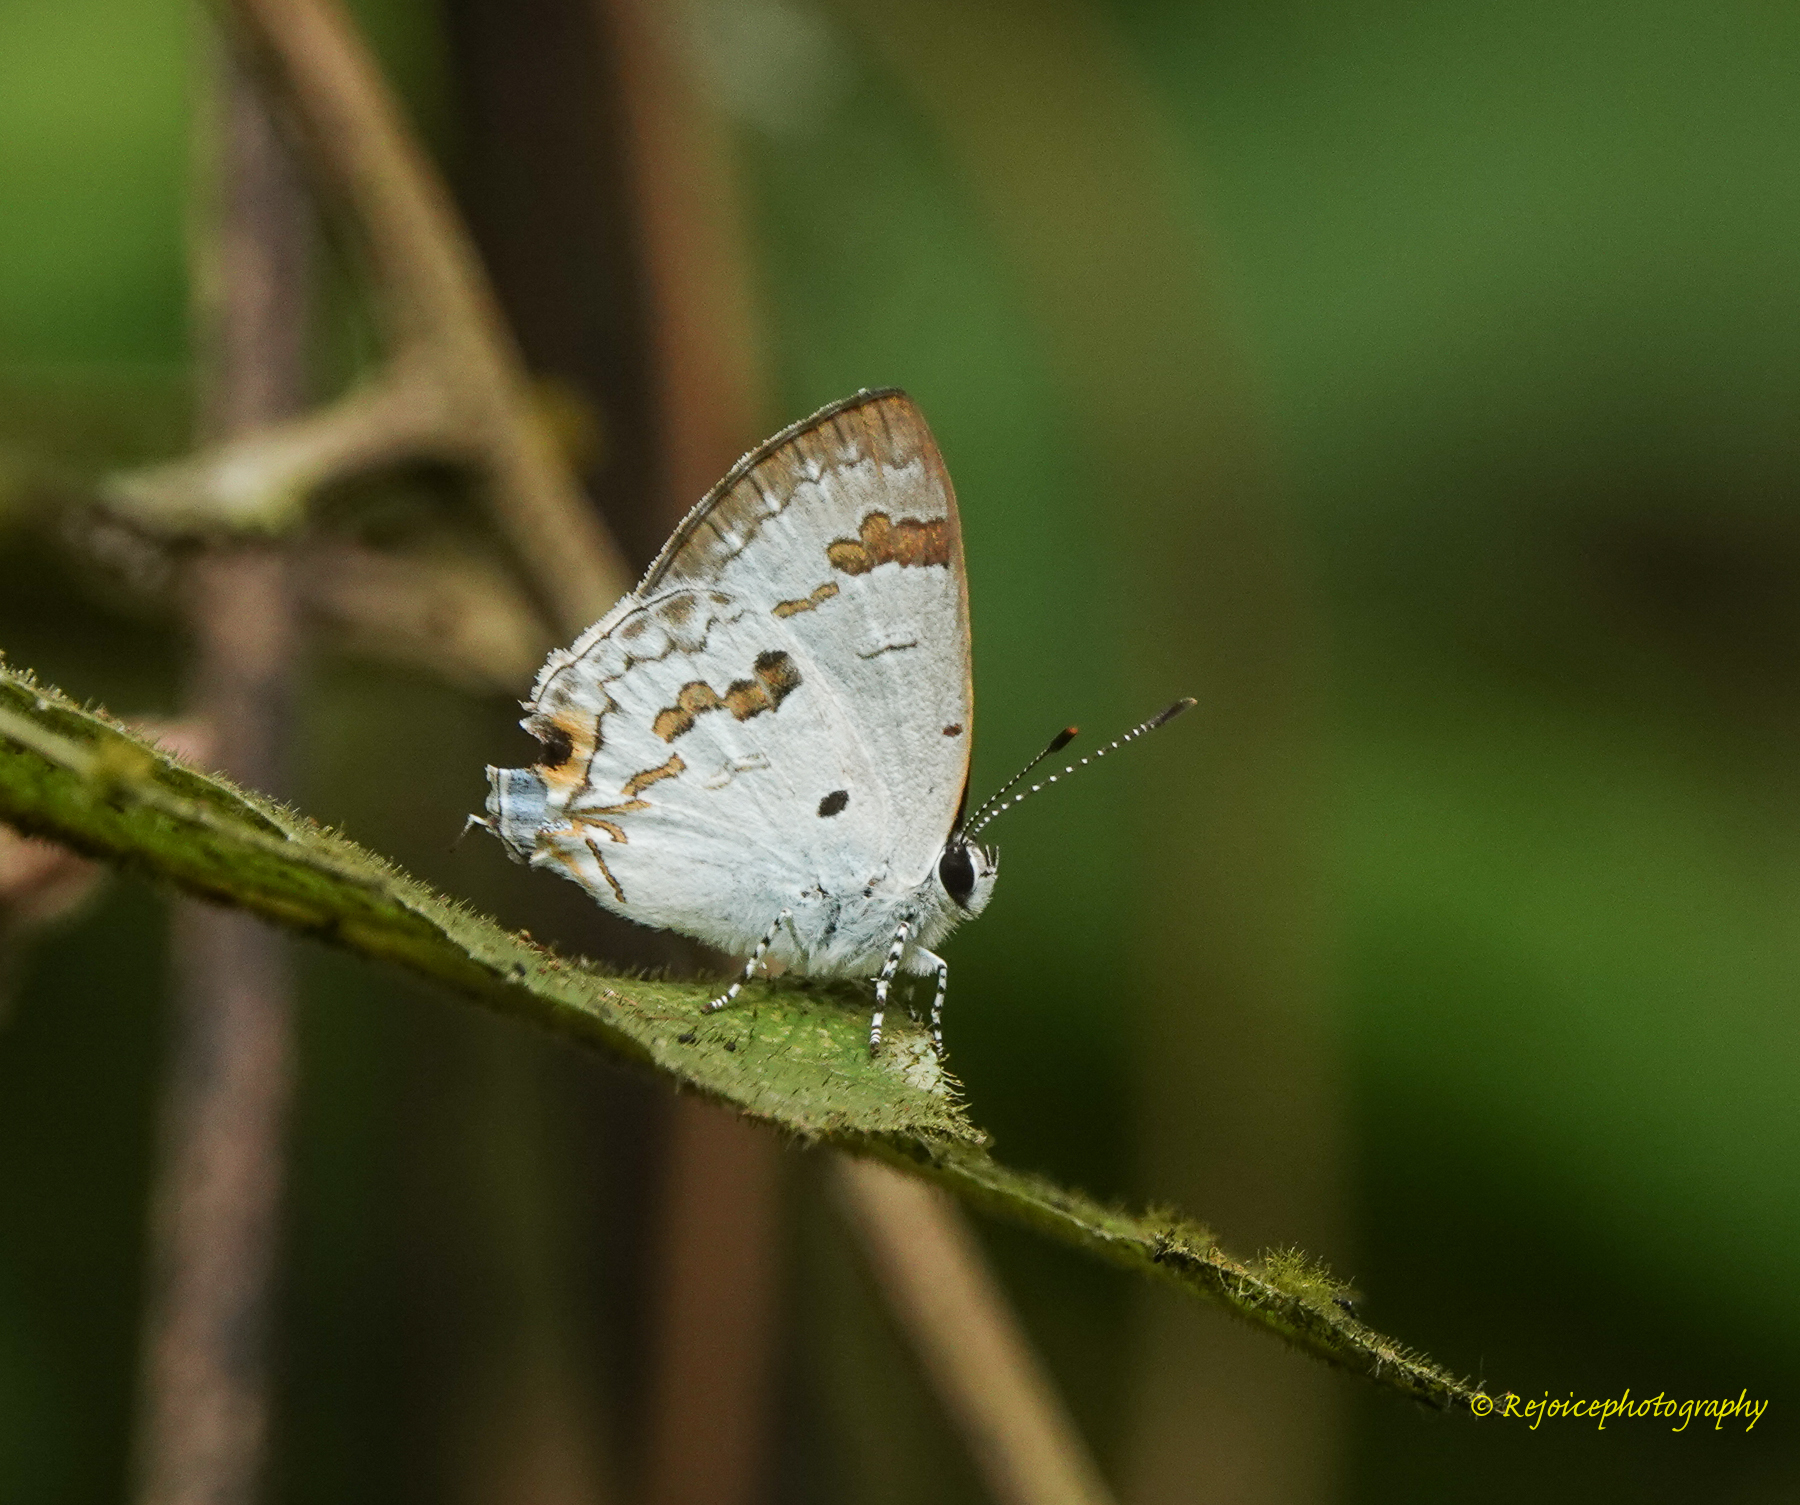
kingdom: Animalia
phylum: Arthropoda
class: Insecta
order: Lepidoptera
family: Lycaenidae
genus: Chliaria
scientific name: Chliaria othona
